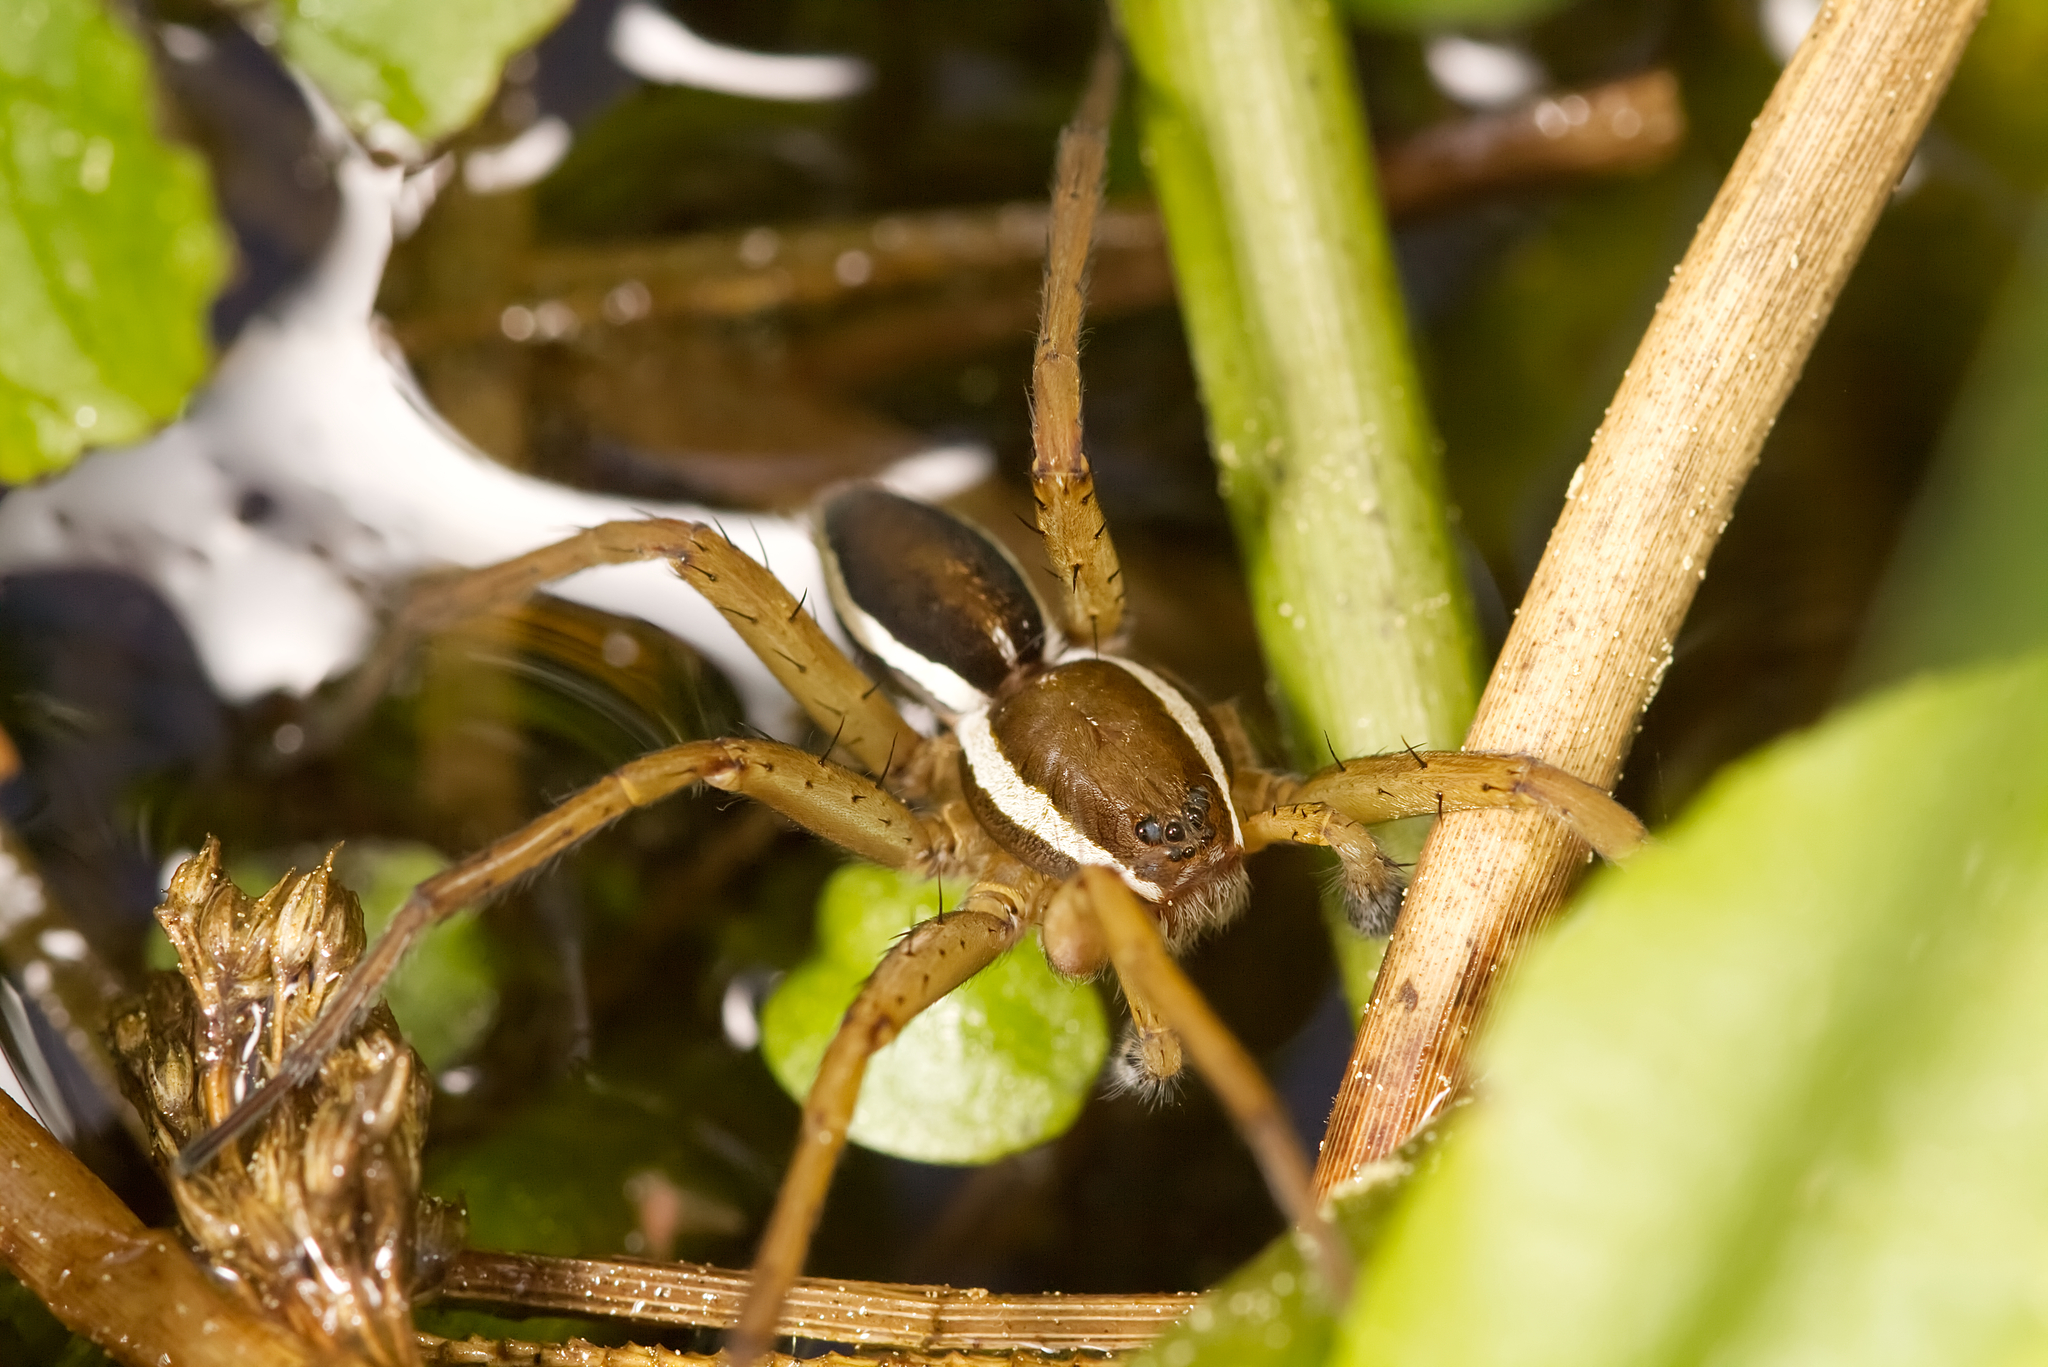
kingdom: Animalia
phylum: Arthropoda
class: Arachnida
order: Araneae
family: Pisauridae
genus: Dolomedes
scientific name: Dolomedes fimbriatus
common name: Raft spider
